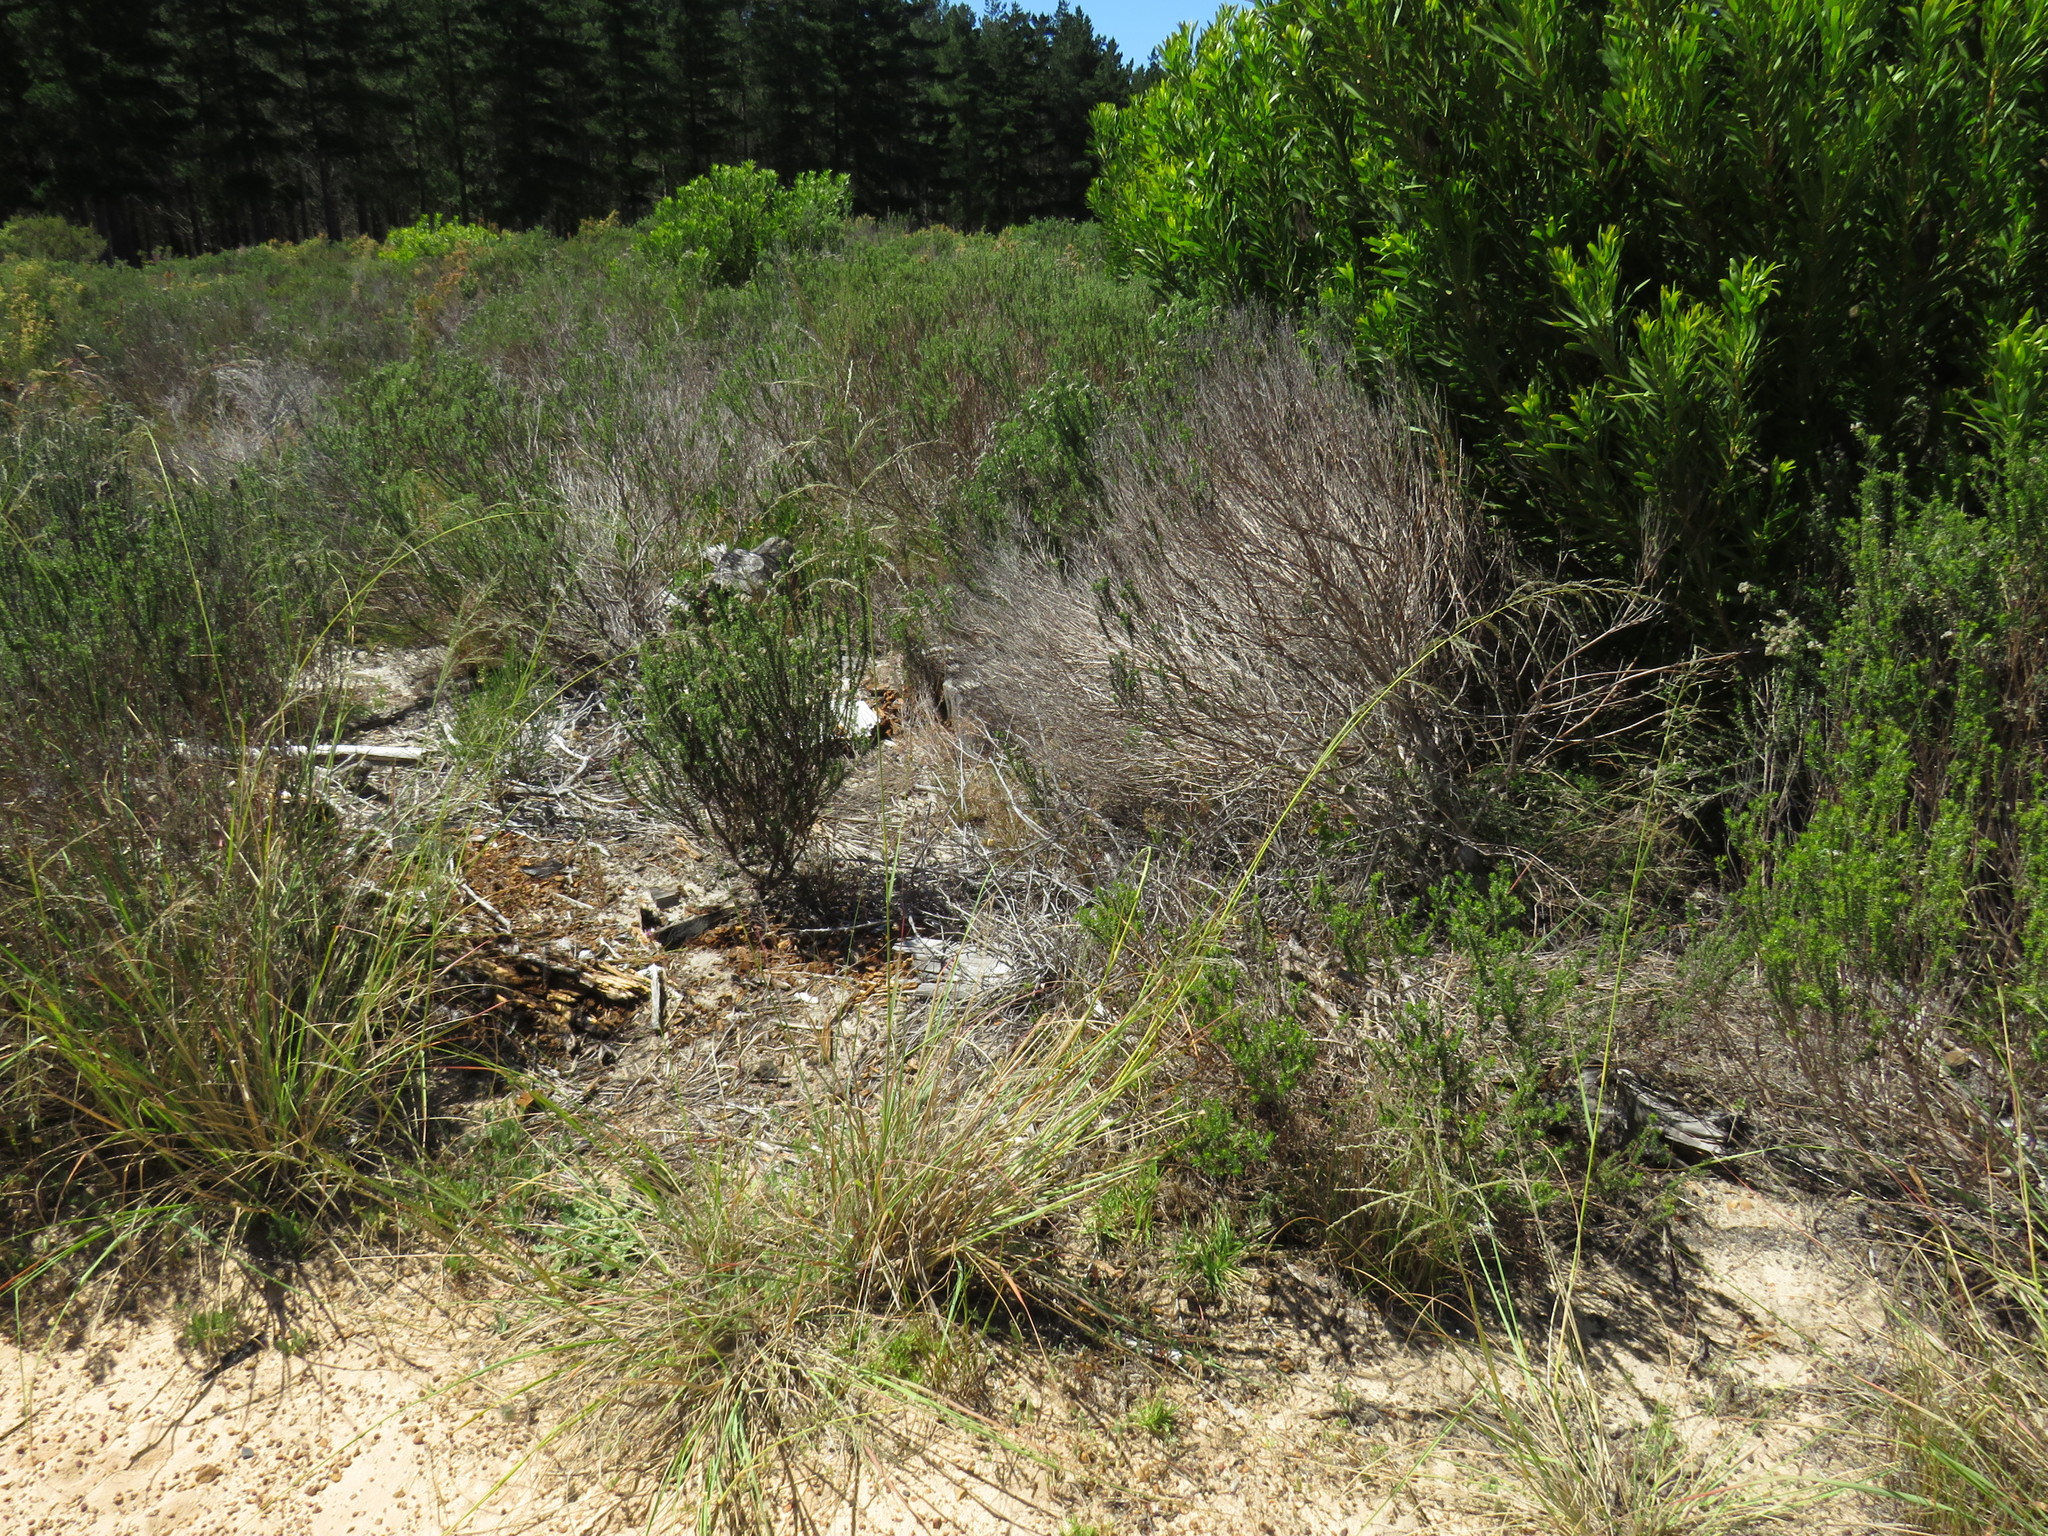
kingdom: Plantae
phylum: Tracheophyta
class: Liliopsida
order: Poales
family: Poaceae
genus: Eragrostis
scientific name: Eragrostis curvula
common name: African love-grass
